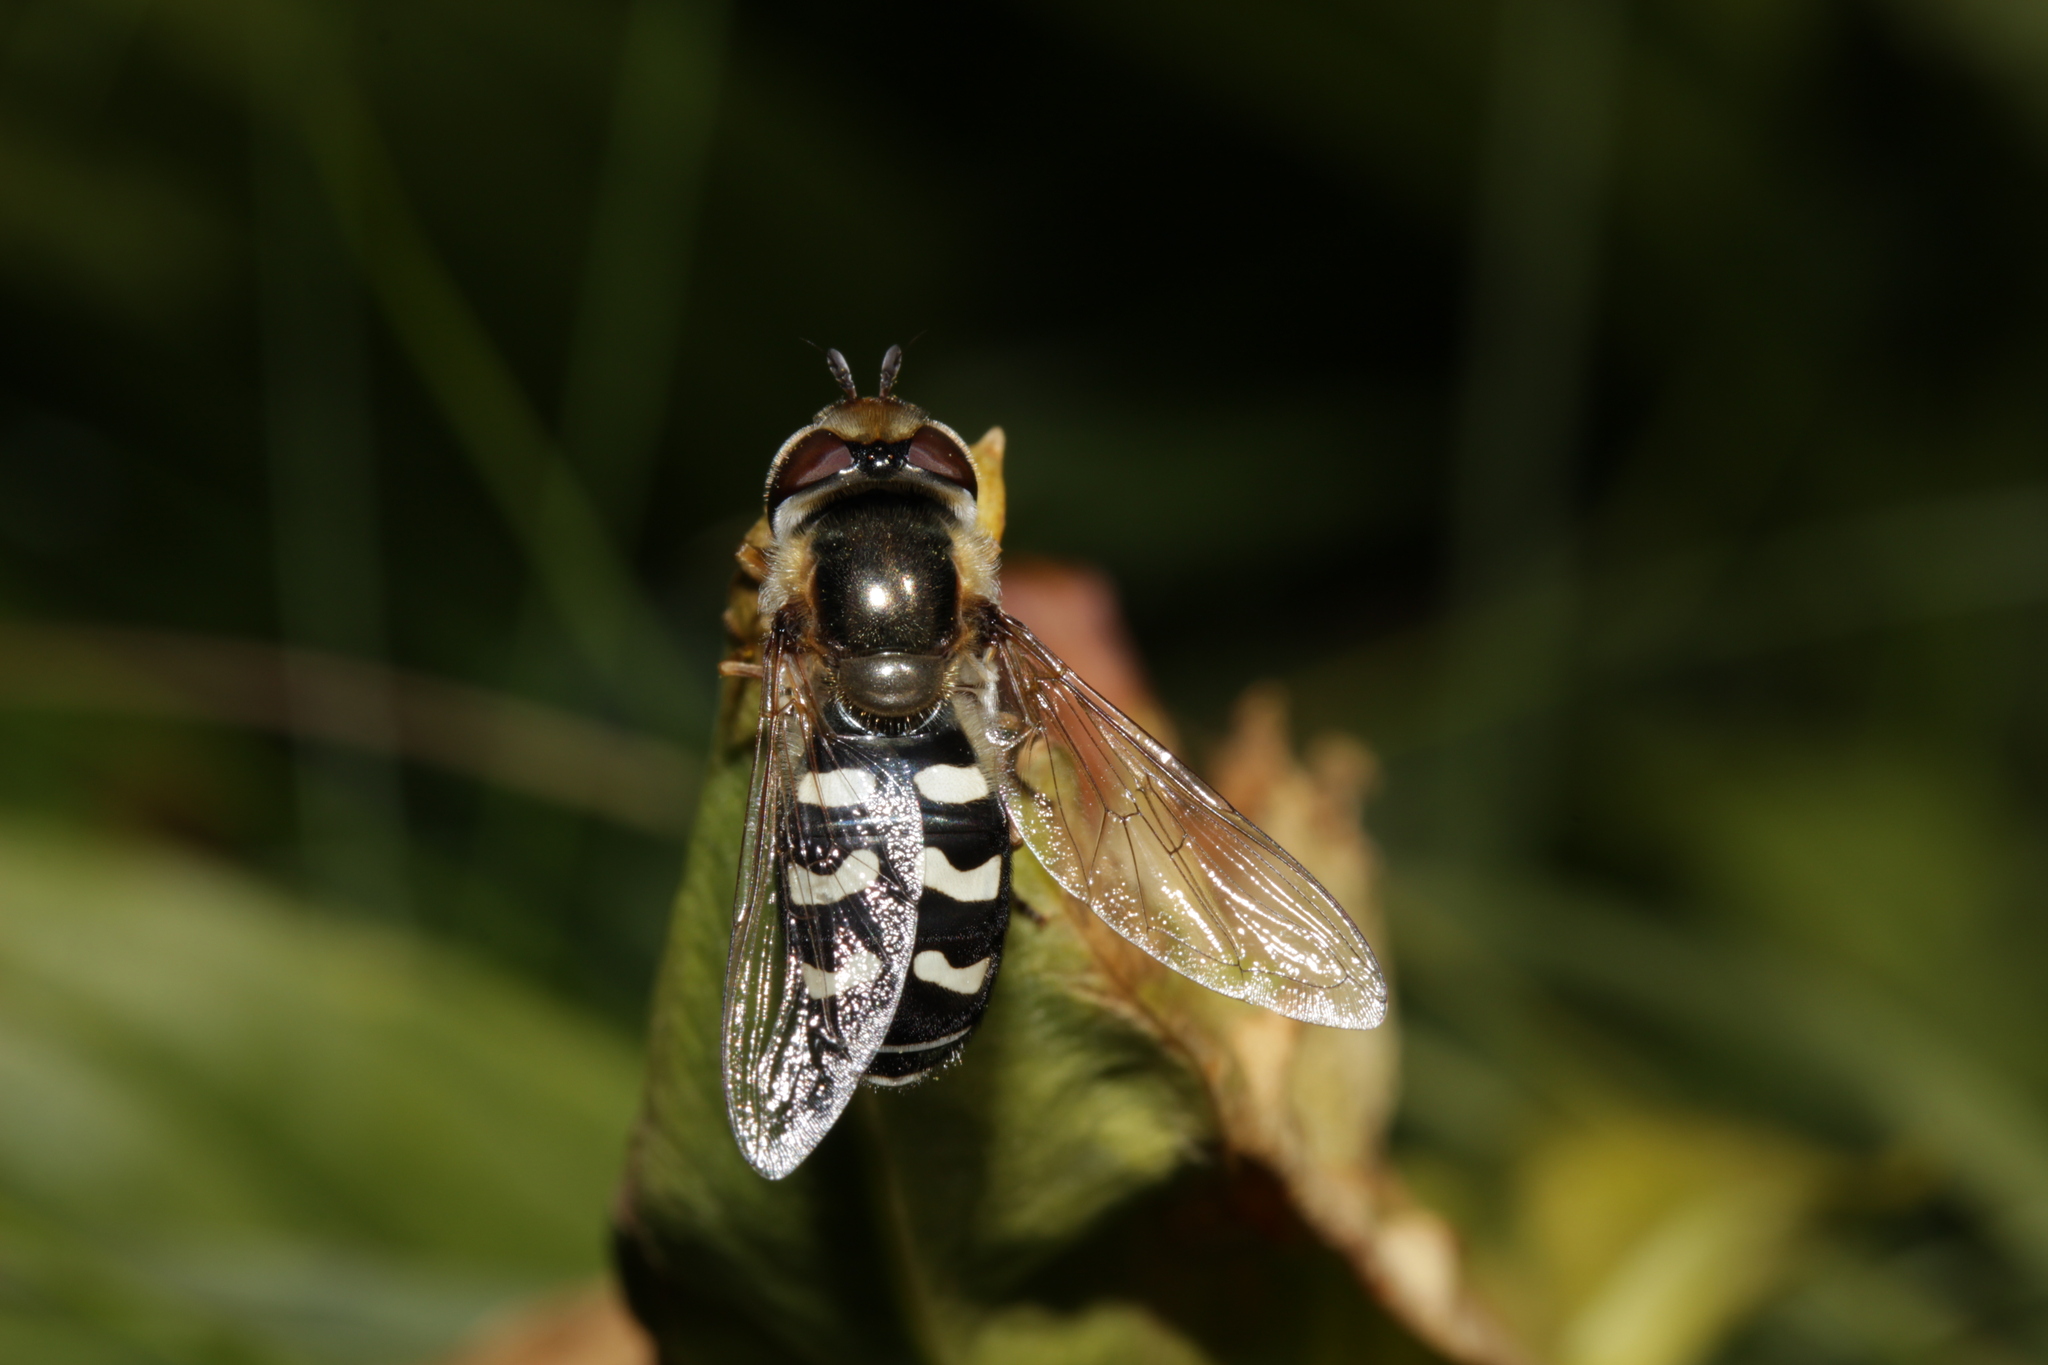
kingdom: Animalia
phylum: Arthropoda
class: Insecta
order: Diptera
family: Syrphidae
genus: Scaeva
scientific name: Scaeva pyrastri
